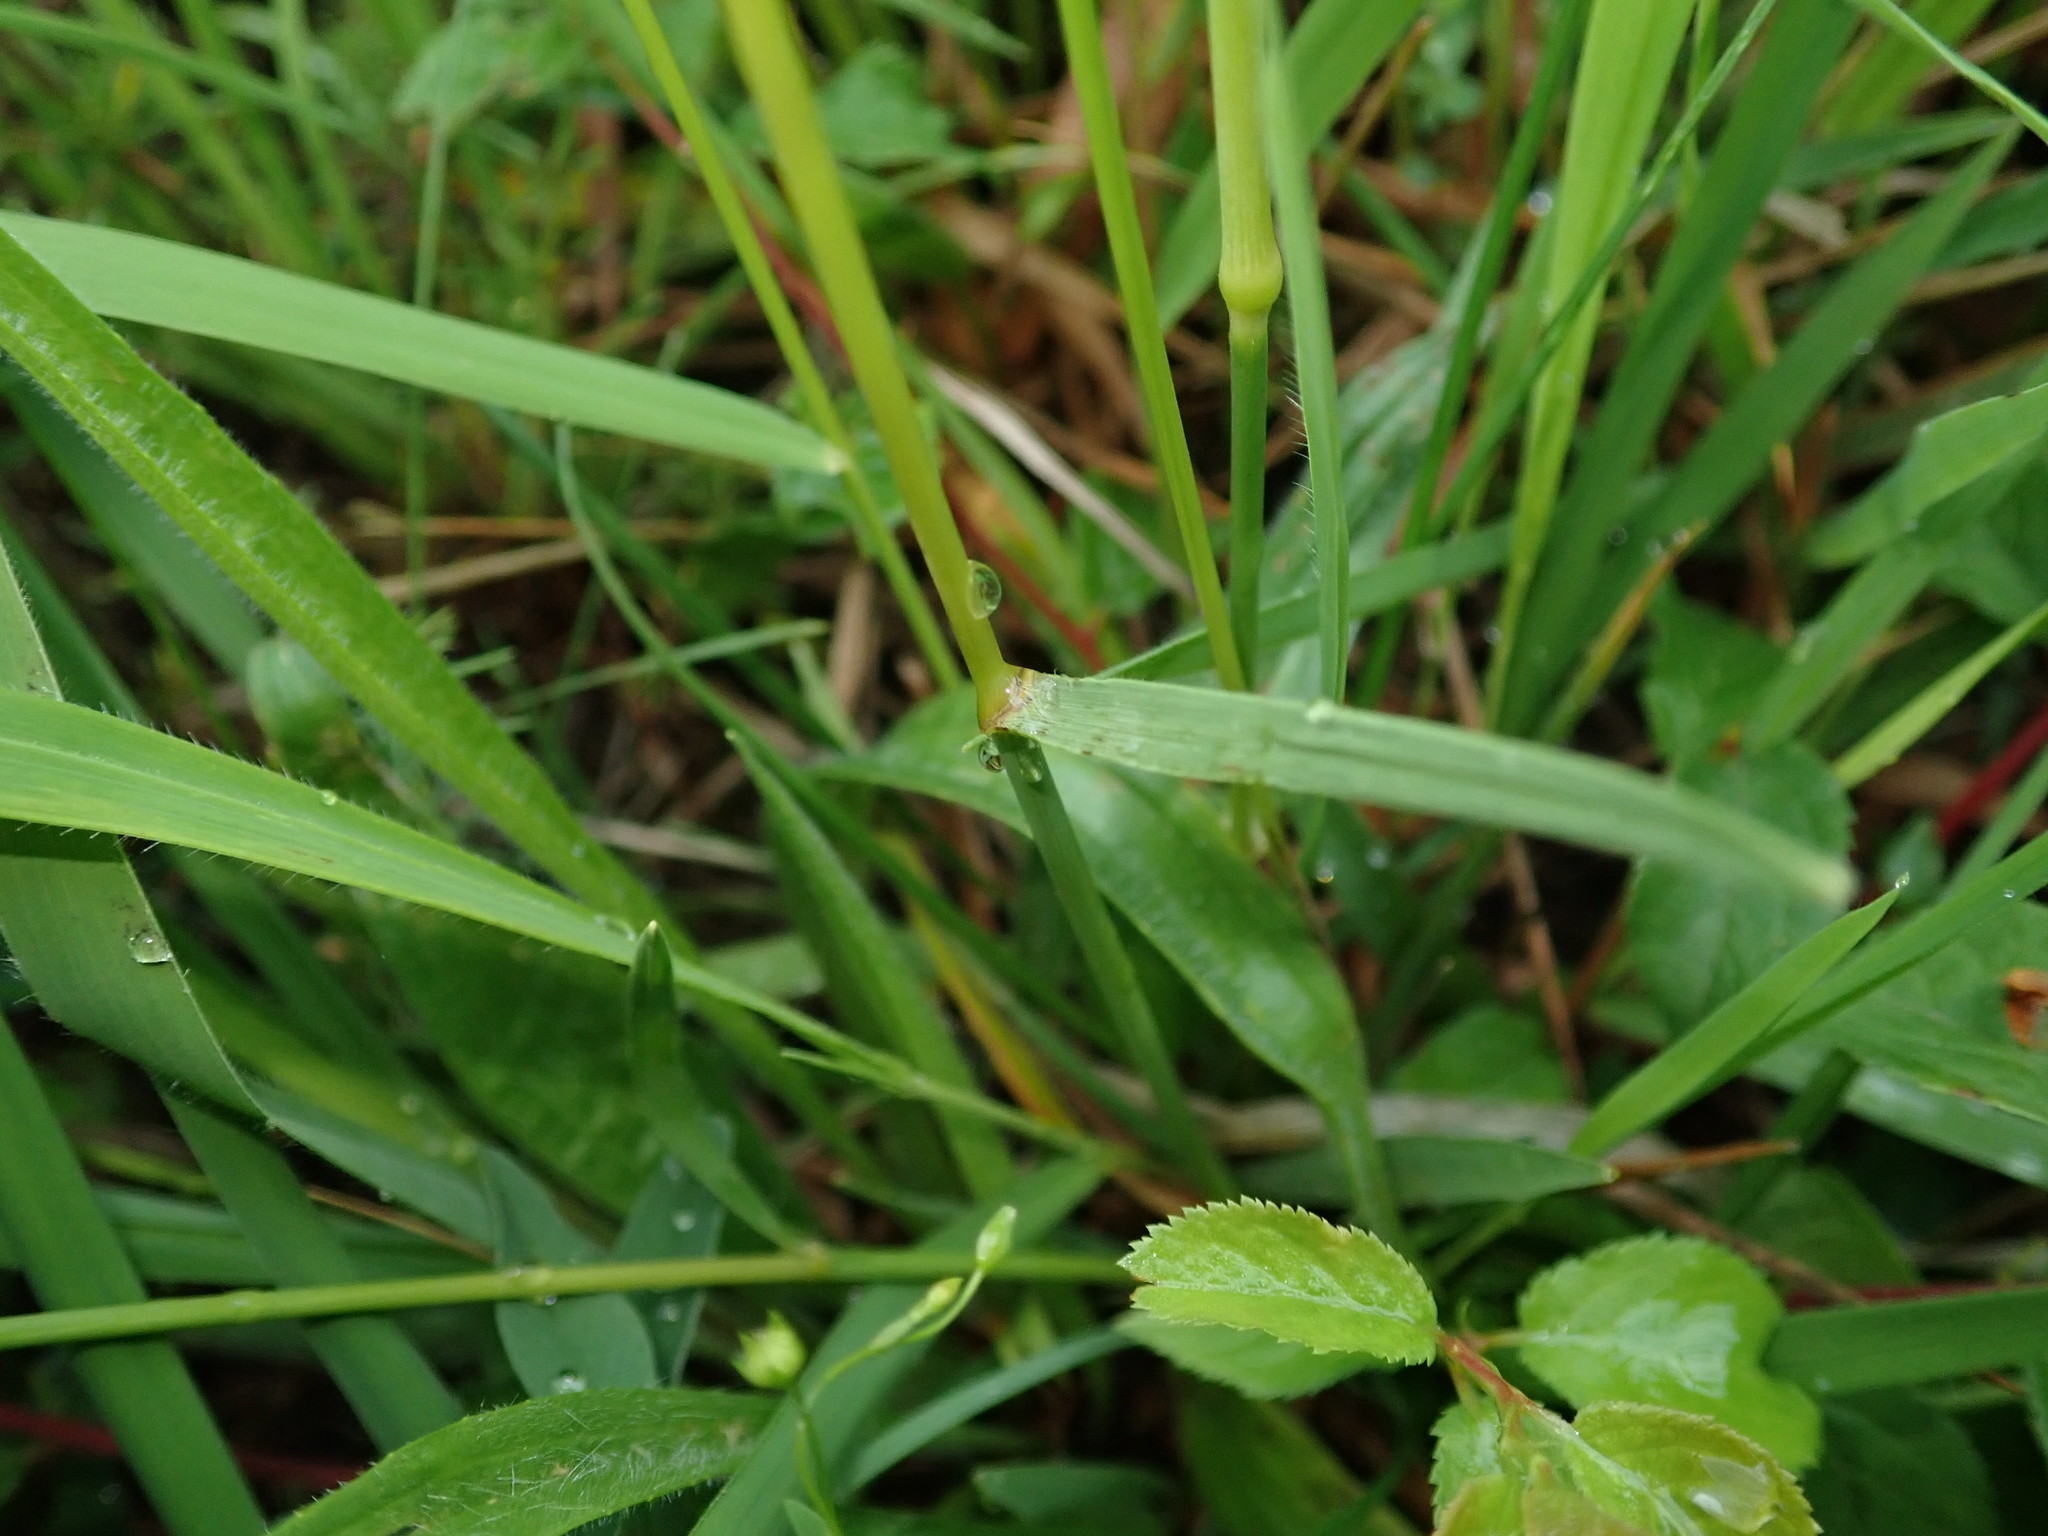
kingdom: Plantae
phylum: Tracheophyta
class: Liliopsida
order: Poales
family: Poaceae
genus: Koeleria
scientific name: Koeleria macrantha
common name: Crested hair-grass
